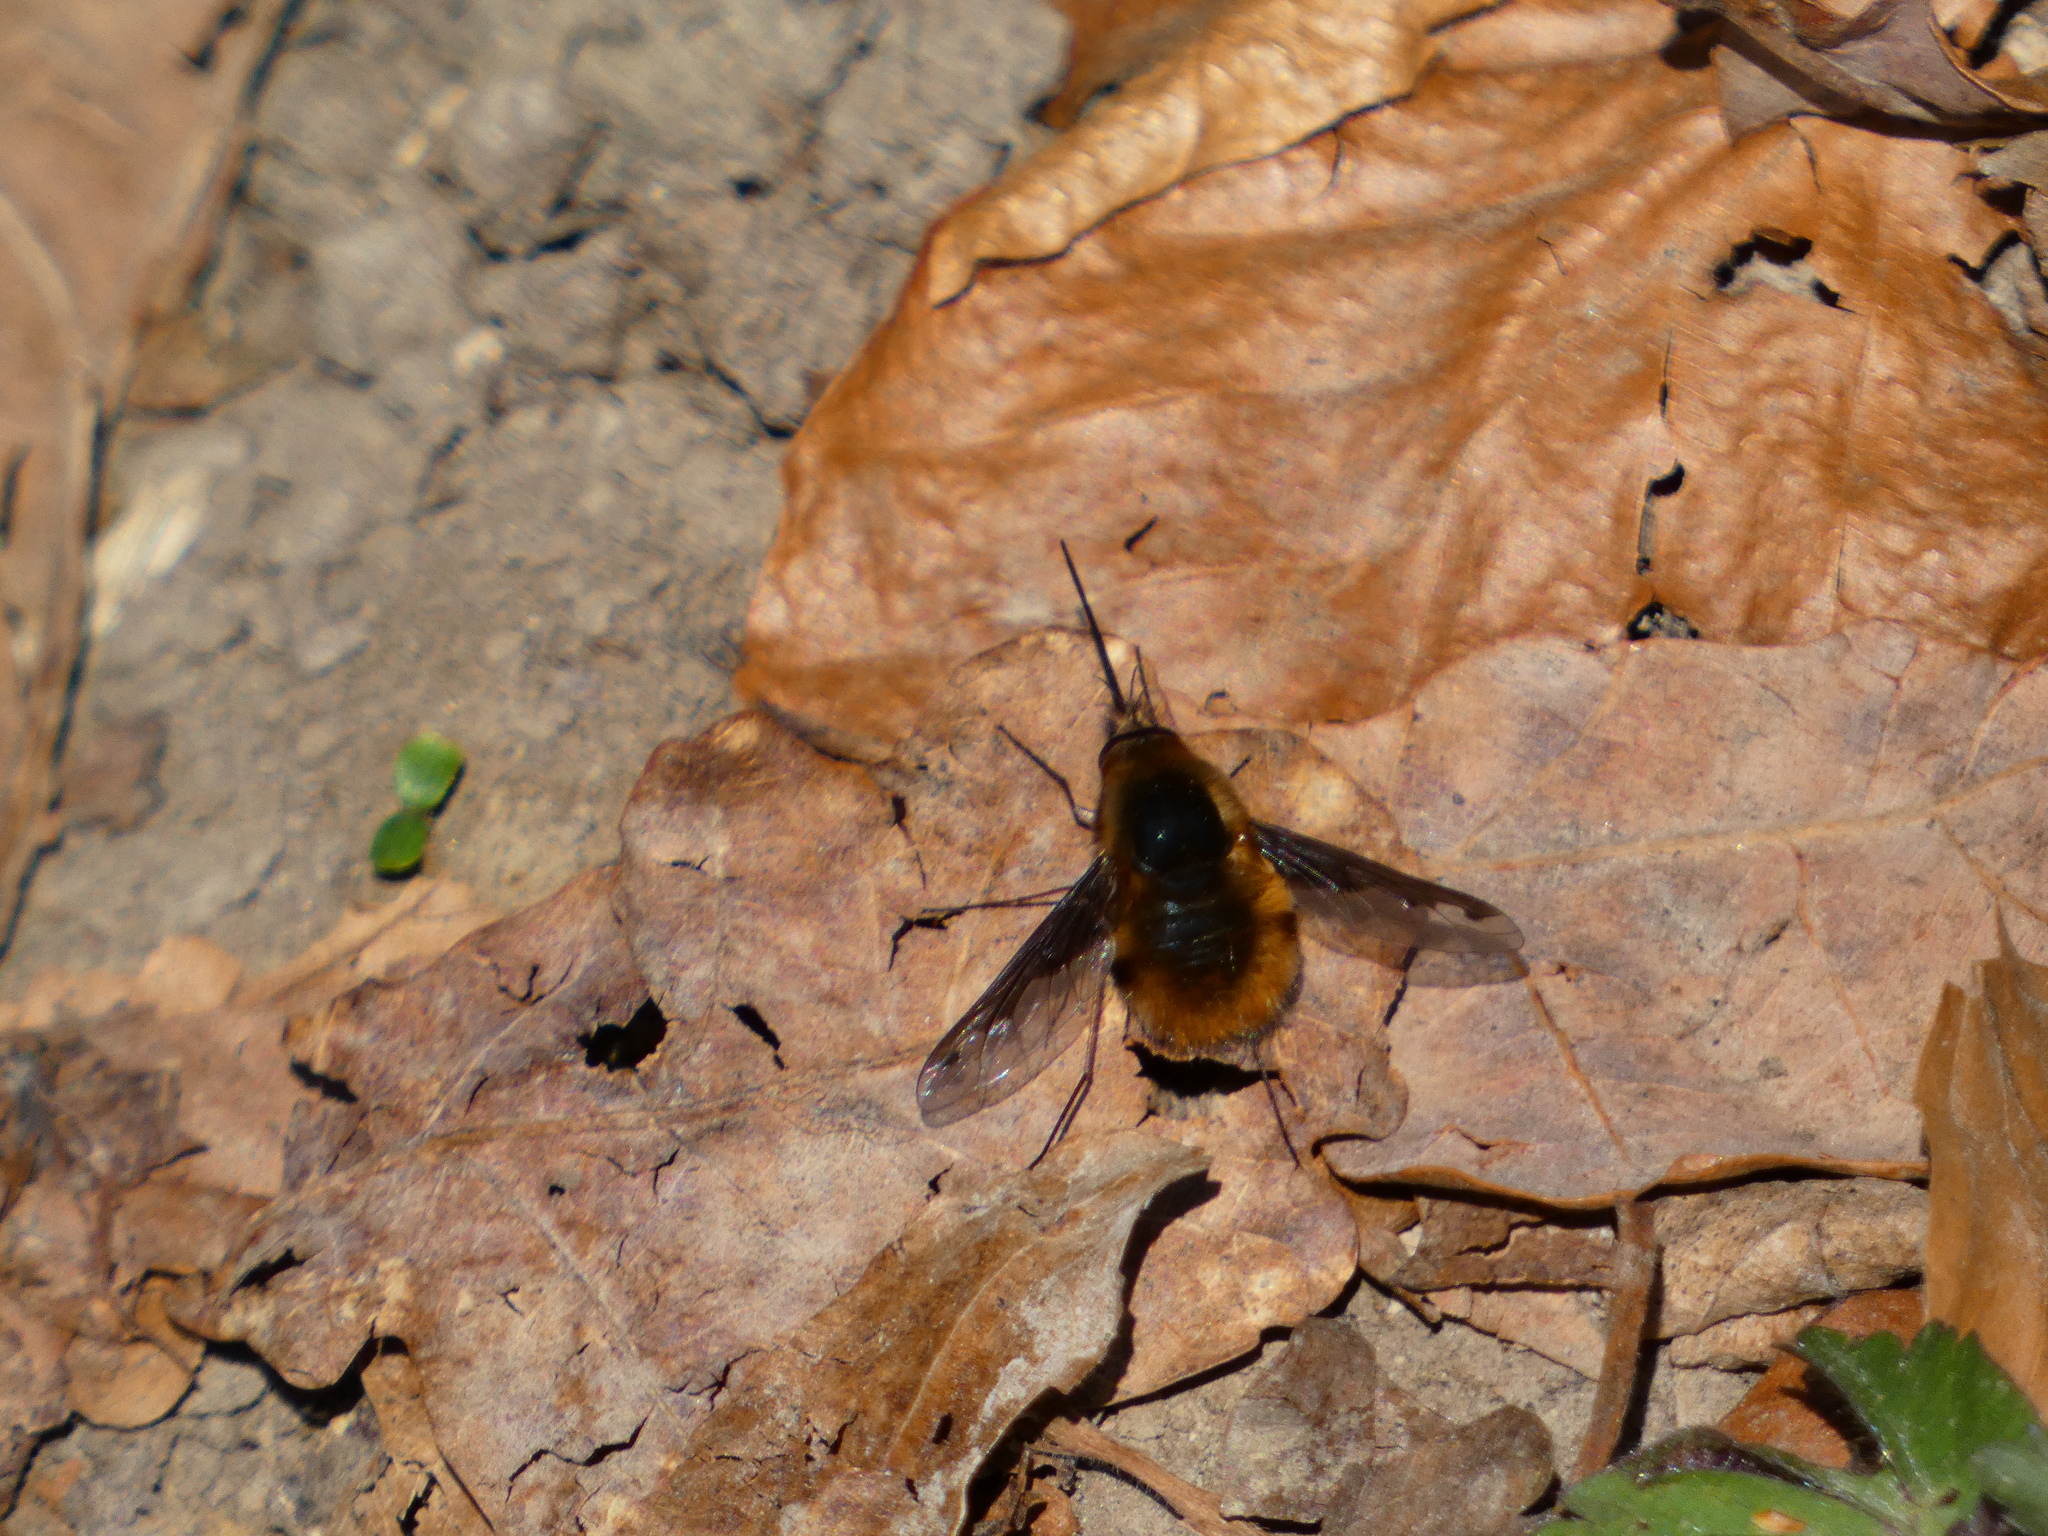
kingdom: Animalia
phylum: Arthropoda
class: Insecta
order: Diptera
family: Bombyliidae
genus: Bombylius
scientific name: Bombylius major
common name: Bee fly
